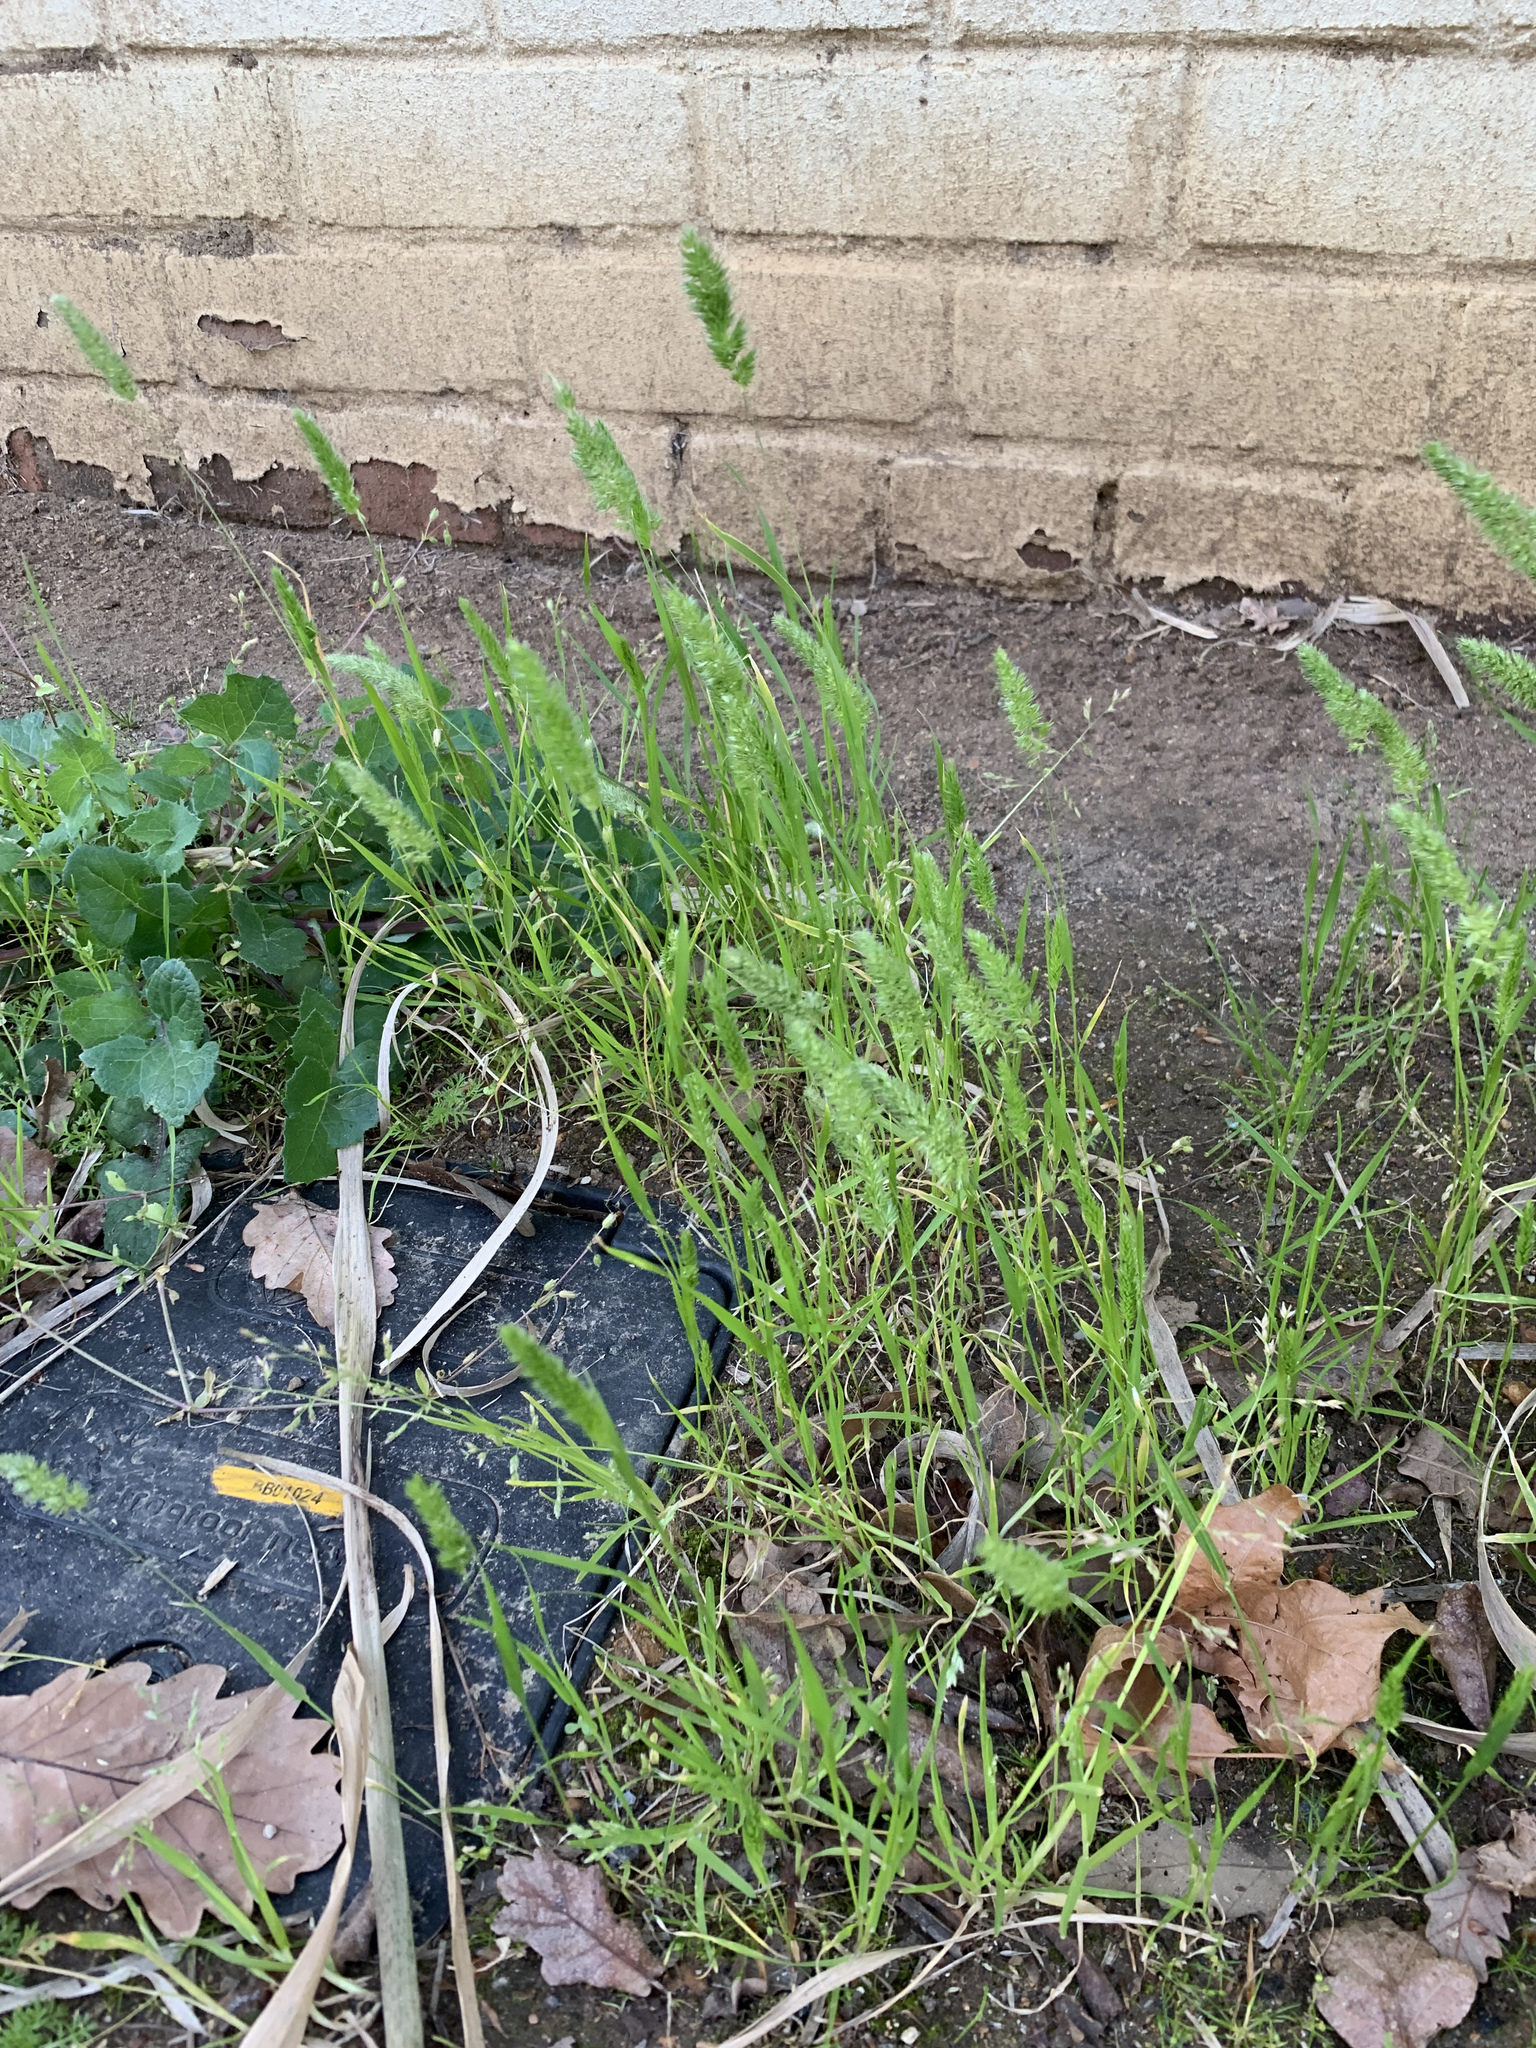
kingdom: Plantae
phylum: Tracheophyta
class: Liliopsida
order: Poales
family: Poaceae
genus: Rostraria
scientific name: Rostraria cristata
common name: Mediterranean hair-grass
